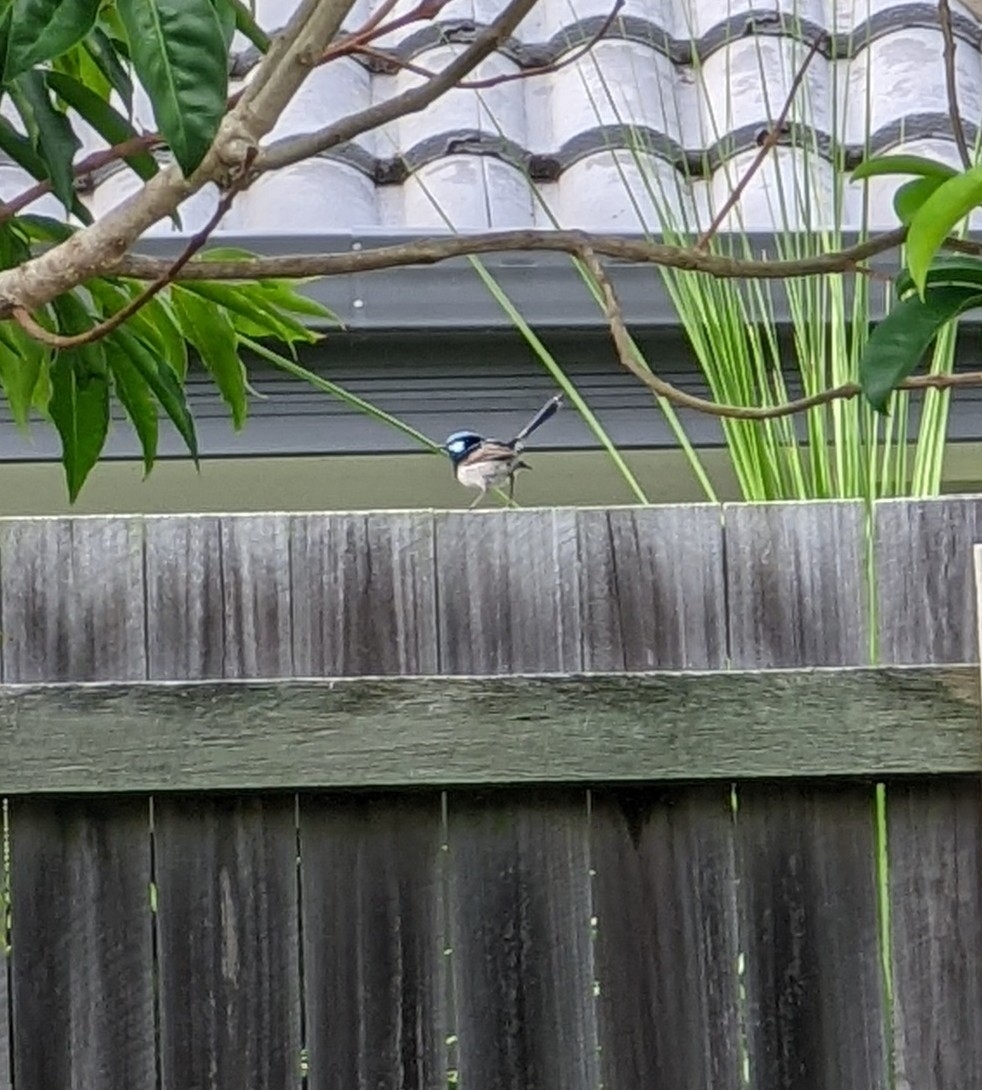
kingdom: Animalia
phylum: Chordata
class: Aves
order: Passeriformes
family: Maluridae
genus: Malurus
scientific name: Malurus cyaneus
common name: Superb fairywren
